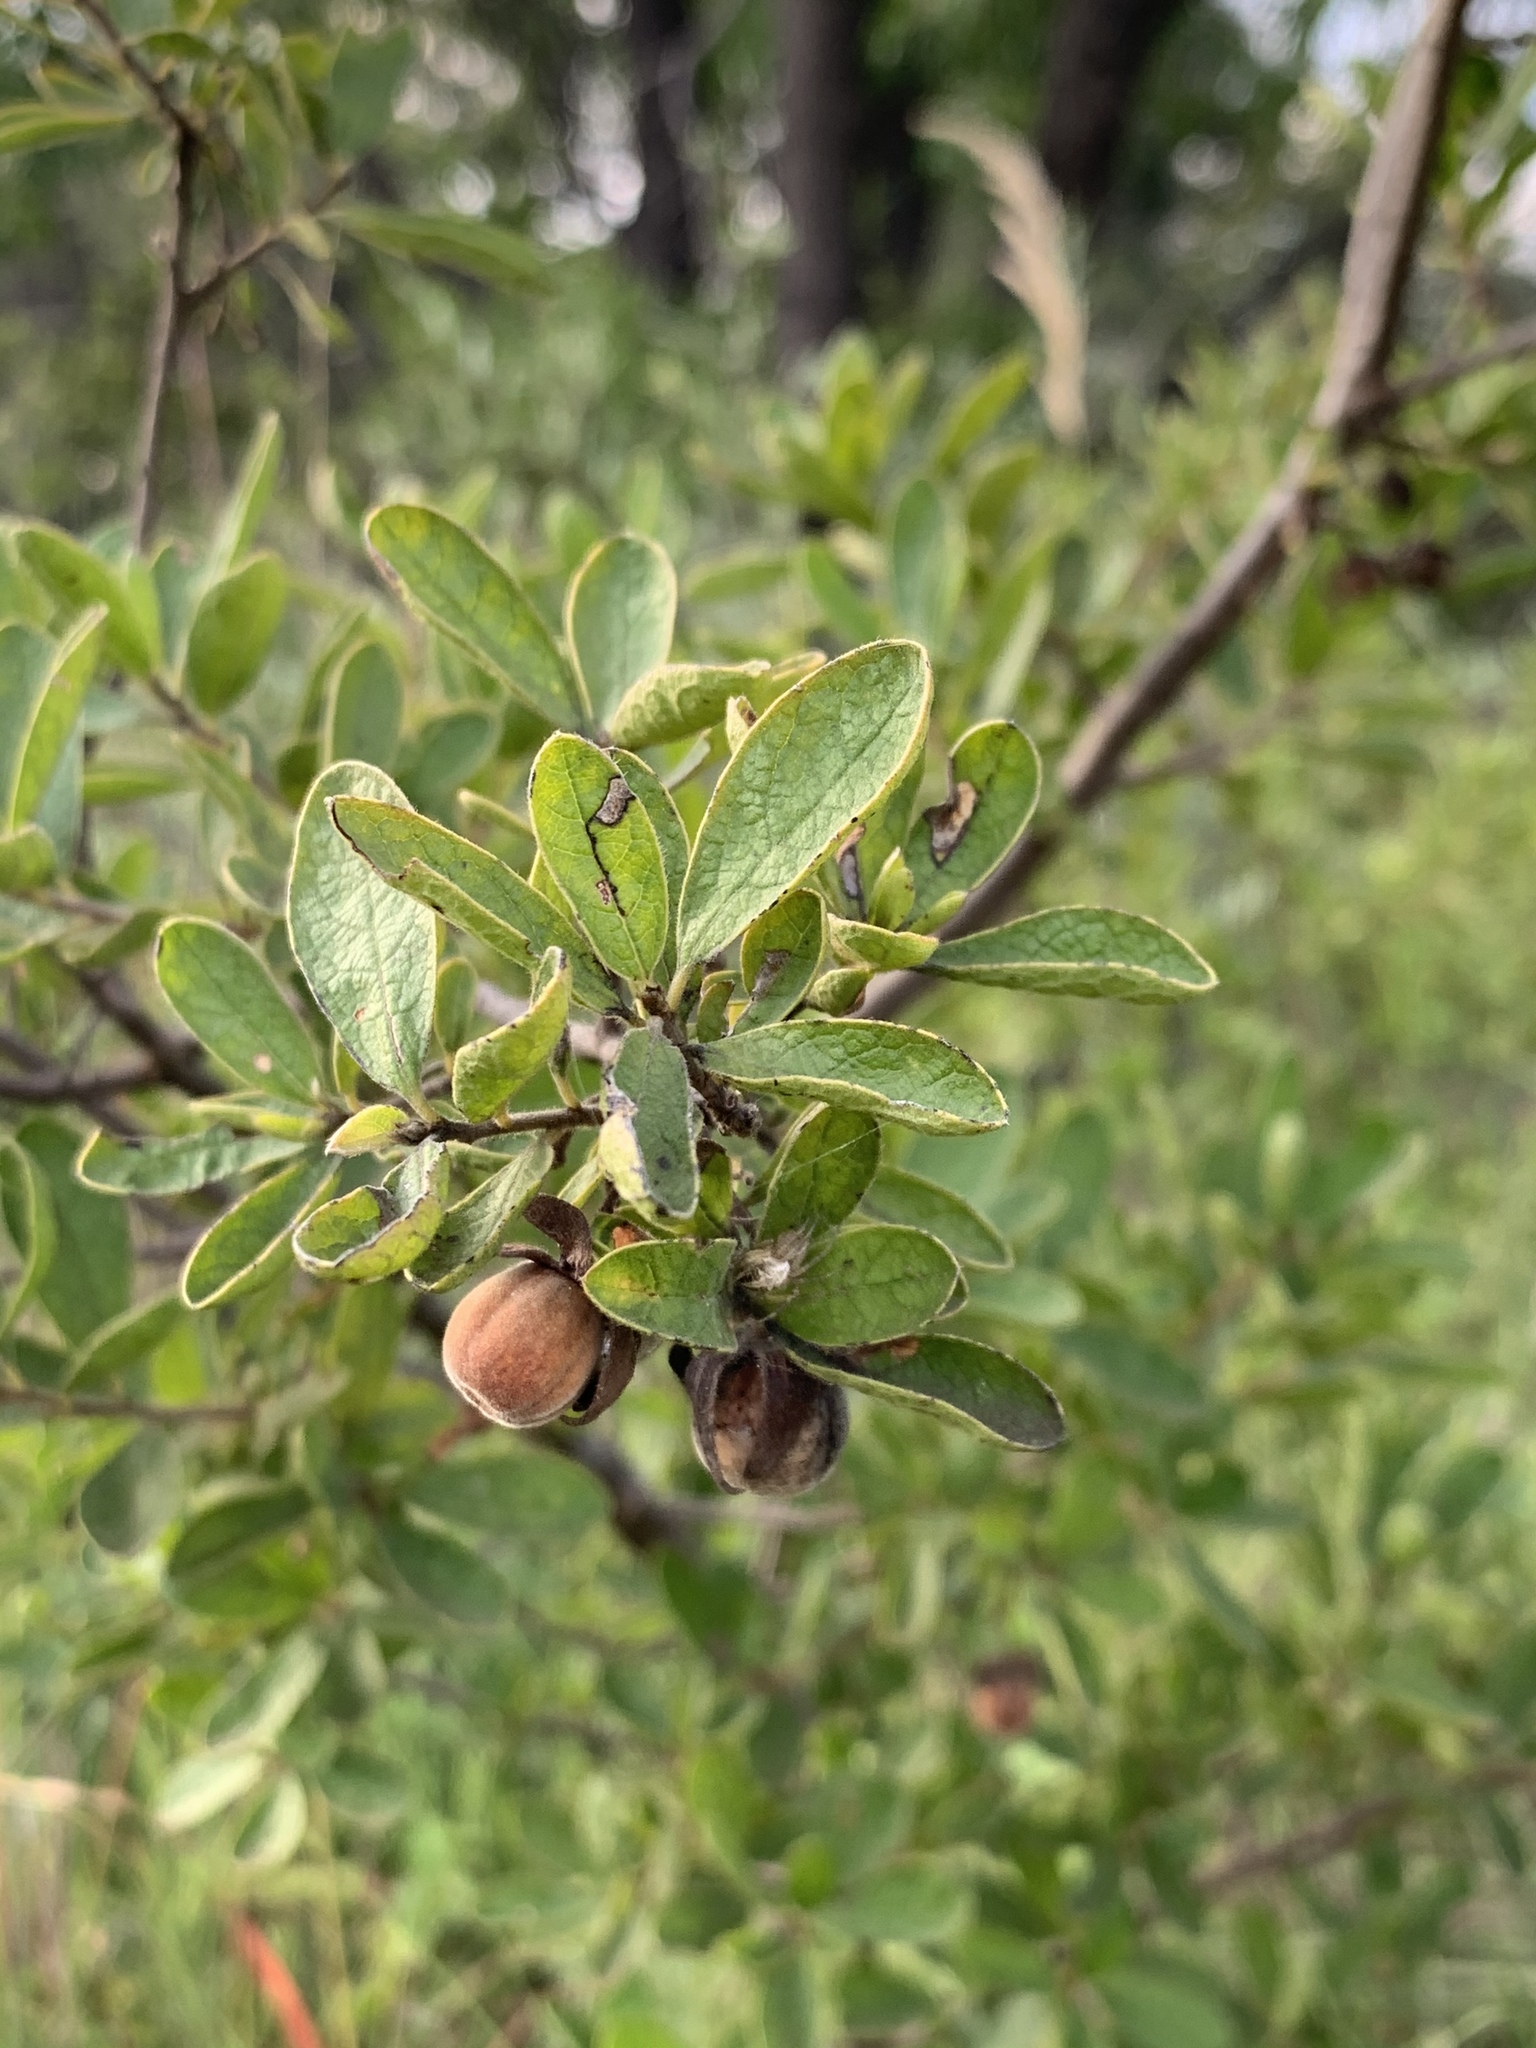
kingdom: Plantae
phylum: Tracheophyta
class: Magnoliopsida
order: Ericales
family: Ebenaceae
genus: Diospyros
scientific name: Diospyros lycioides
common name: Red star apple
